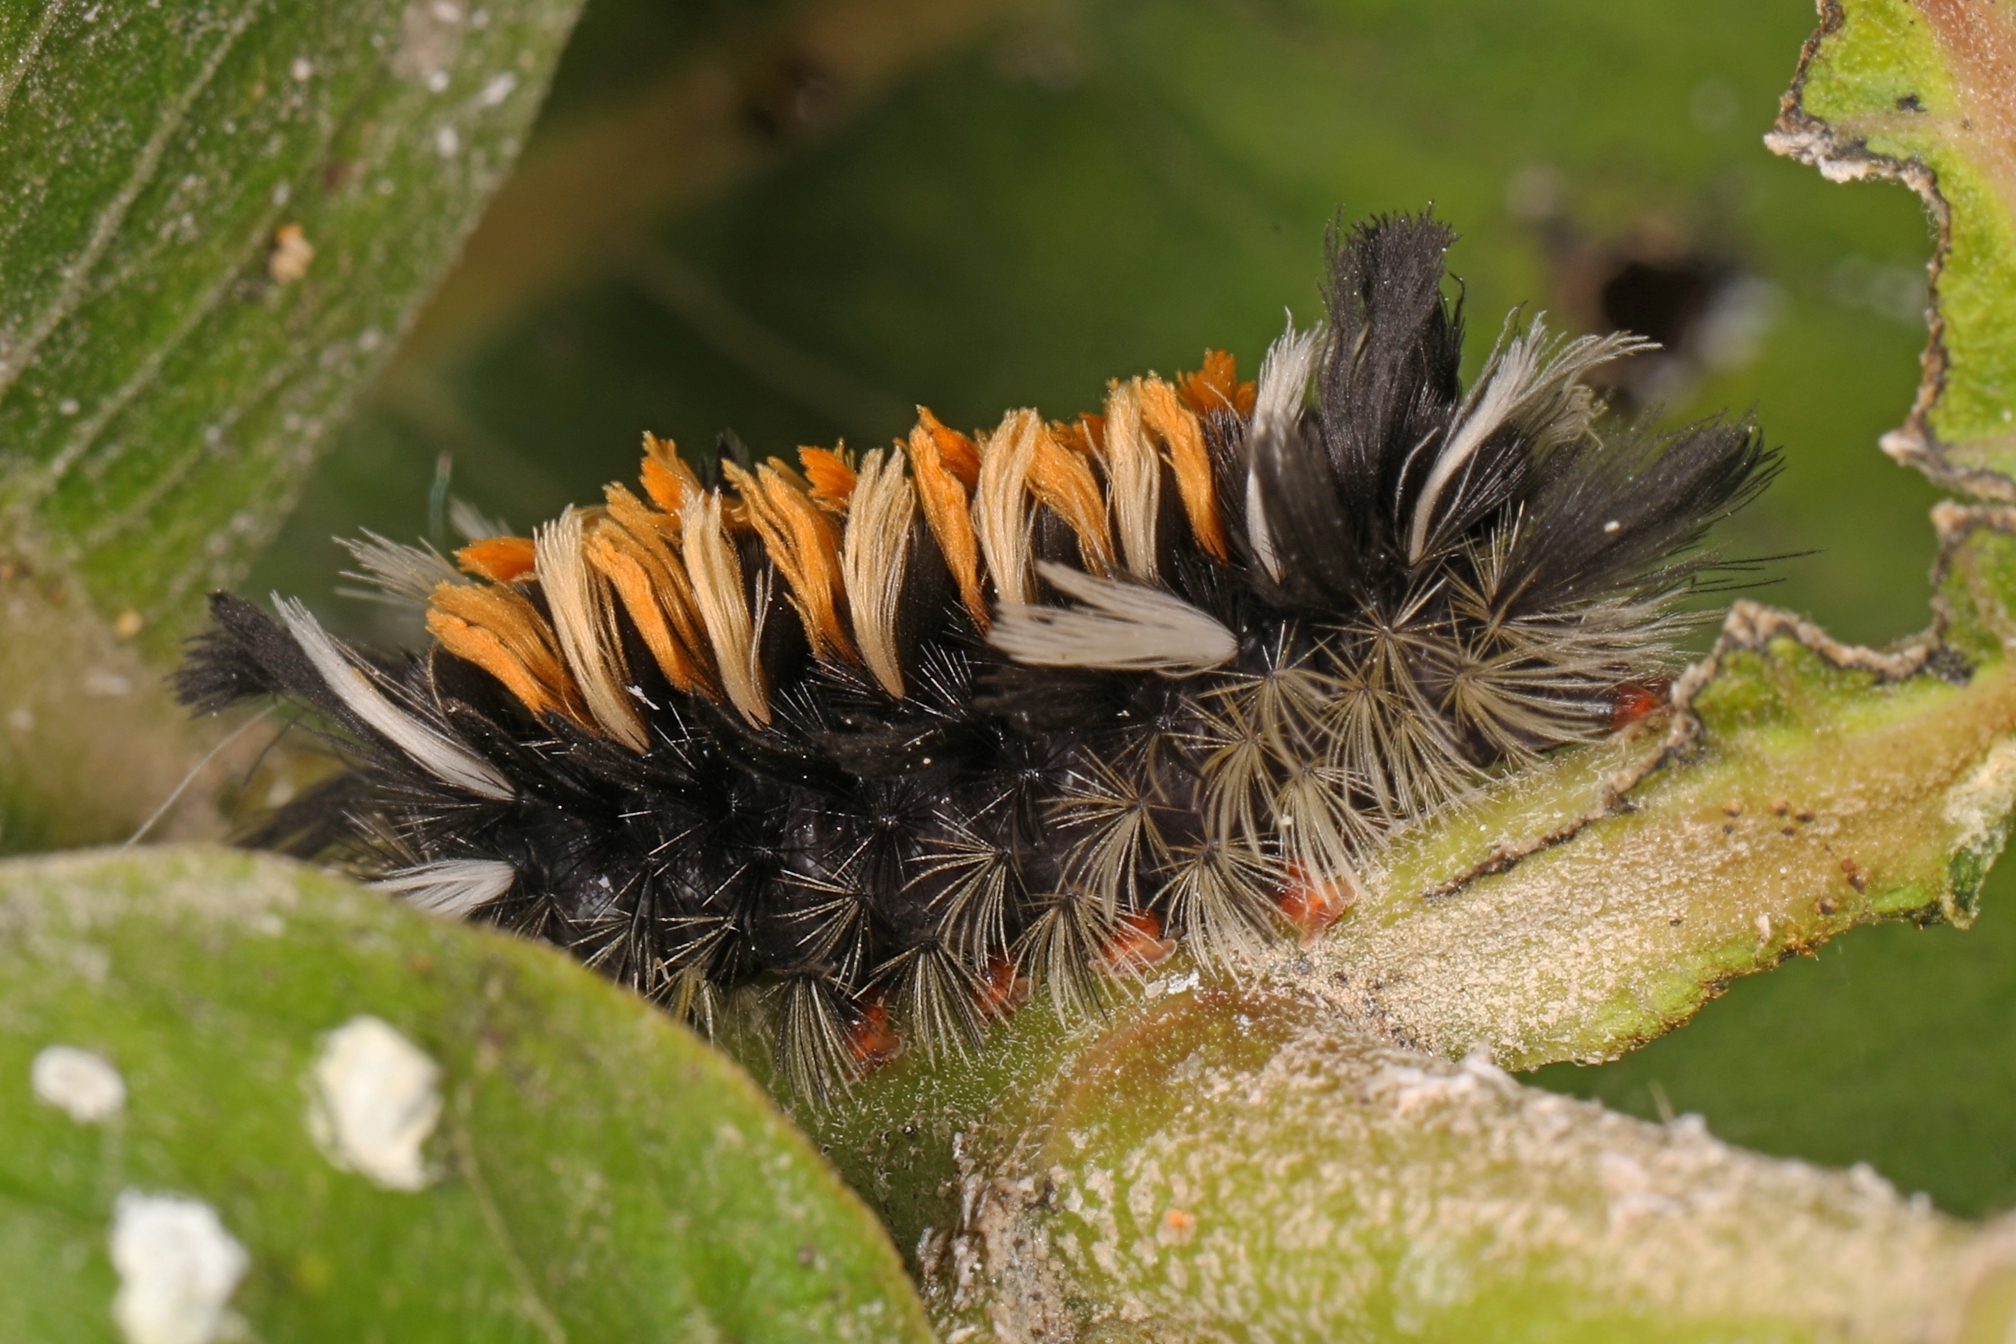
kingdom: Animalia
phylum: Arthropoda
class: Insecta
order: Lepidoptera
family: Erebidae
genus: Euchaetes
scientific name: Euchaetes egle
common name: Milkweed tussock moth
